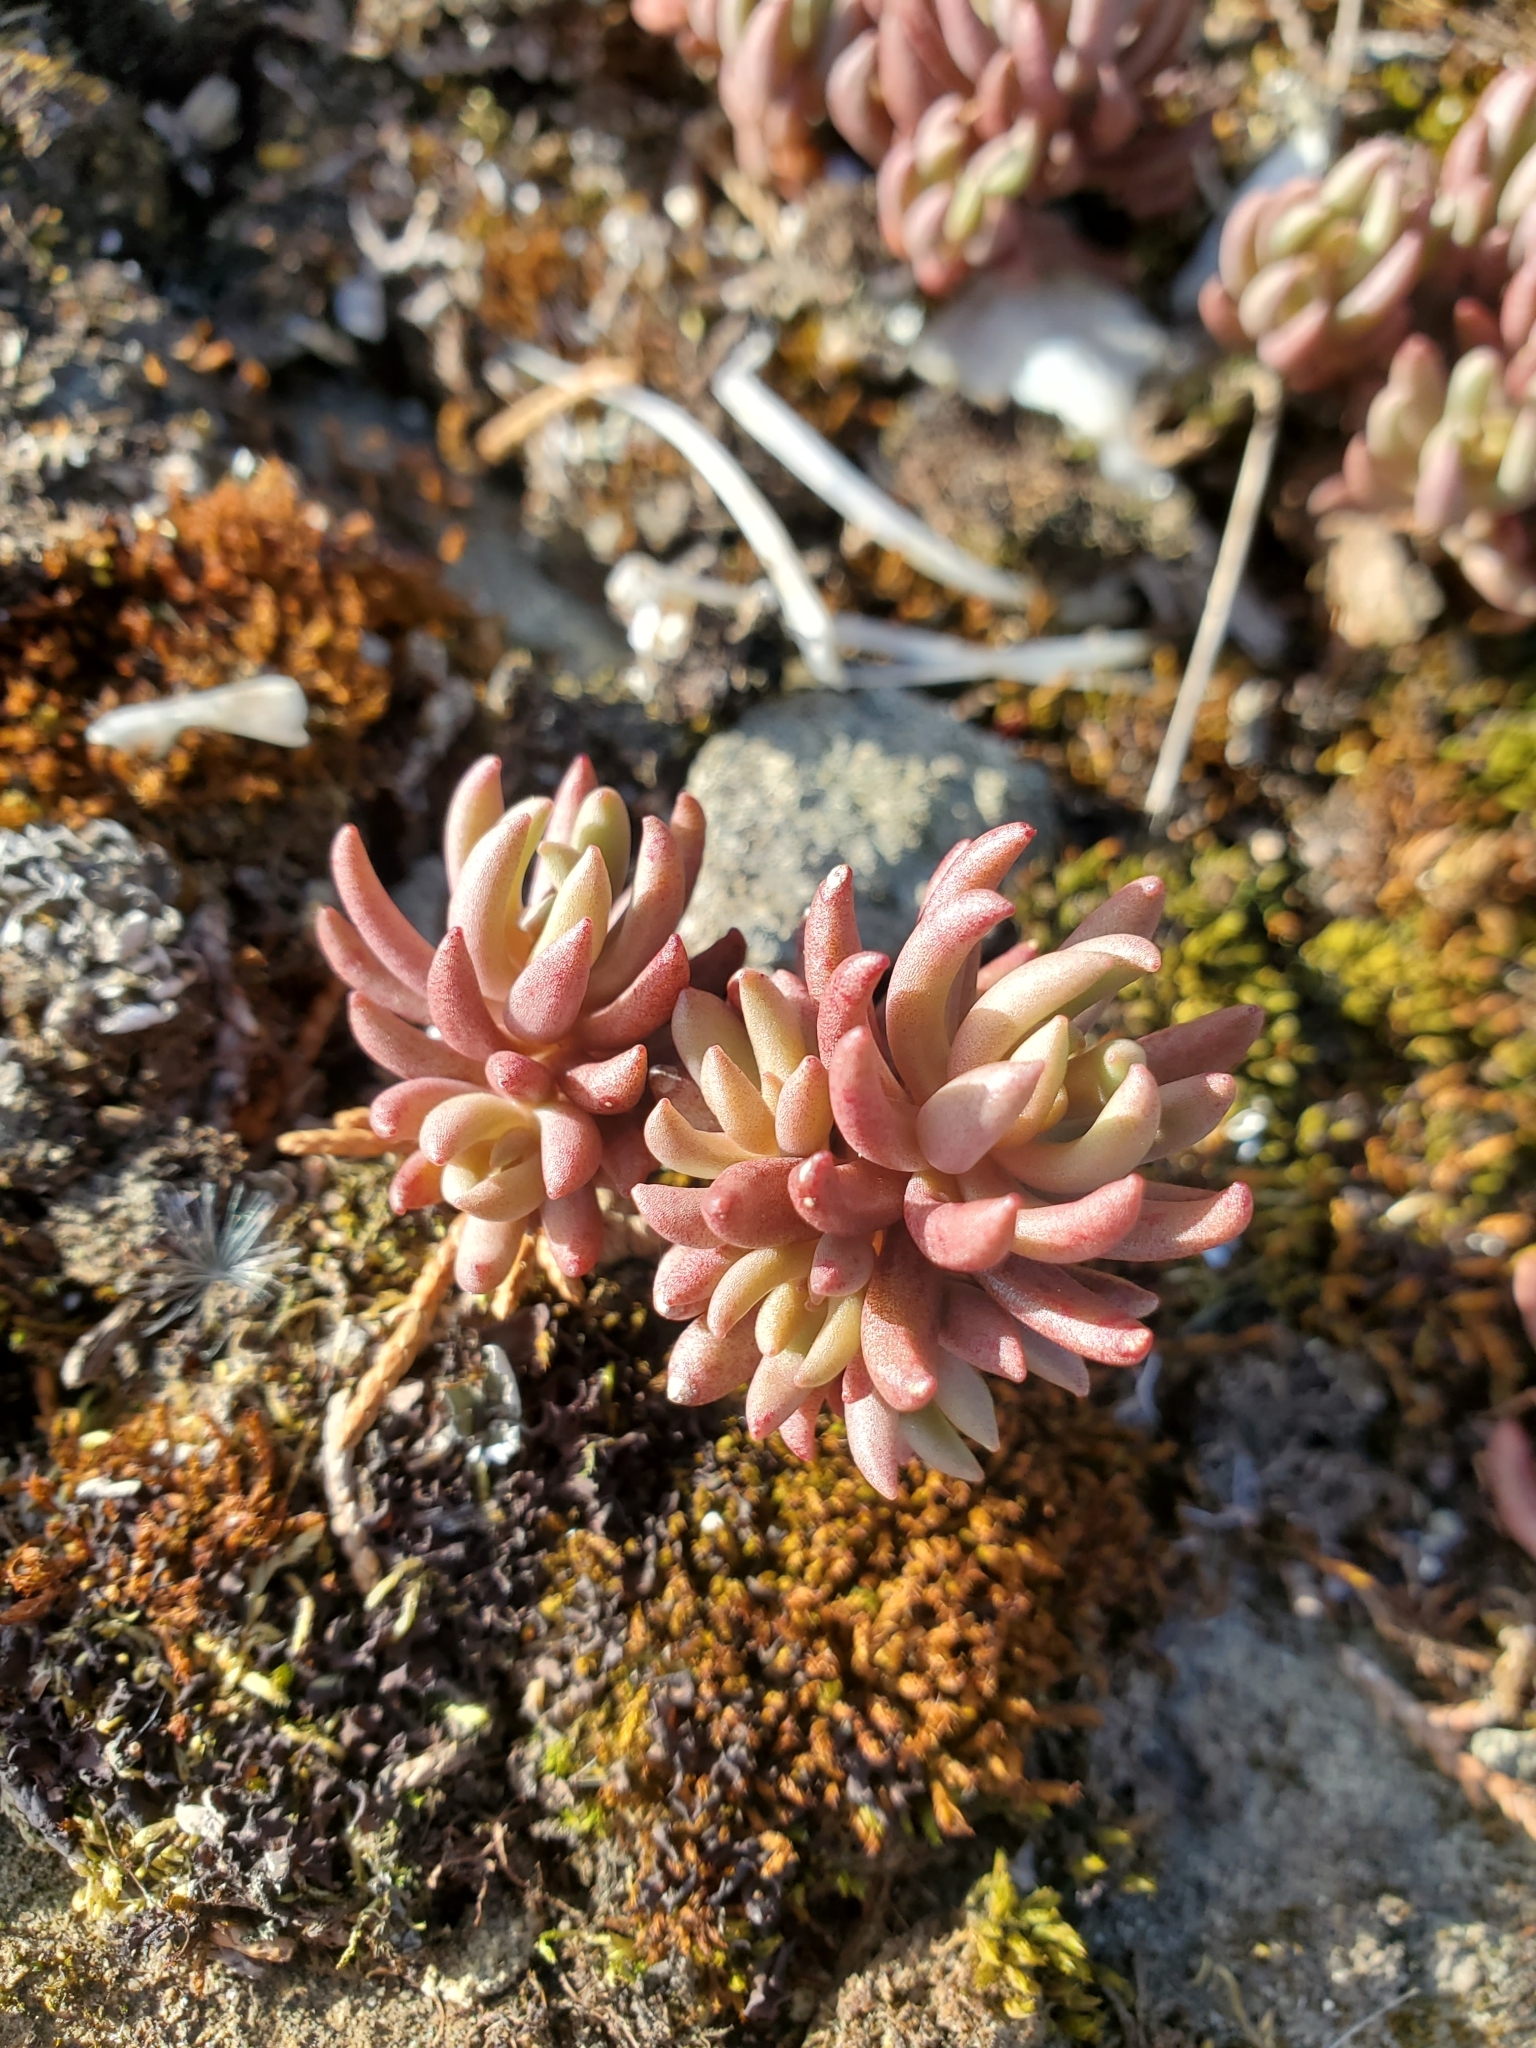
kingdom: Plantae
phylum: Tracheophyta
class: Magnoliopsida
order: Saxifragales
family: Crassulaceae
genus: Sedum
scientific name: Sedum lanceolatum
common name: Common stonecrop
